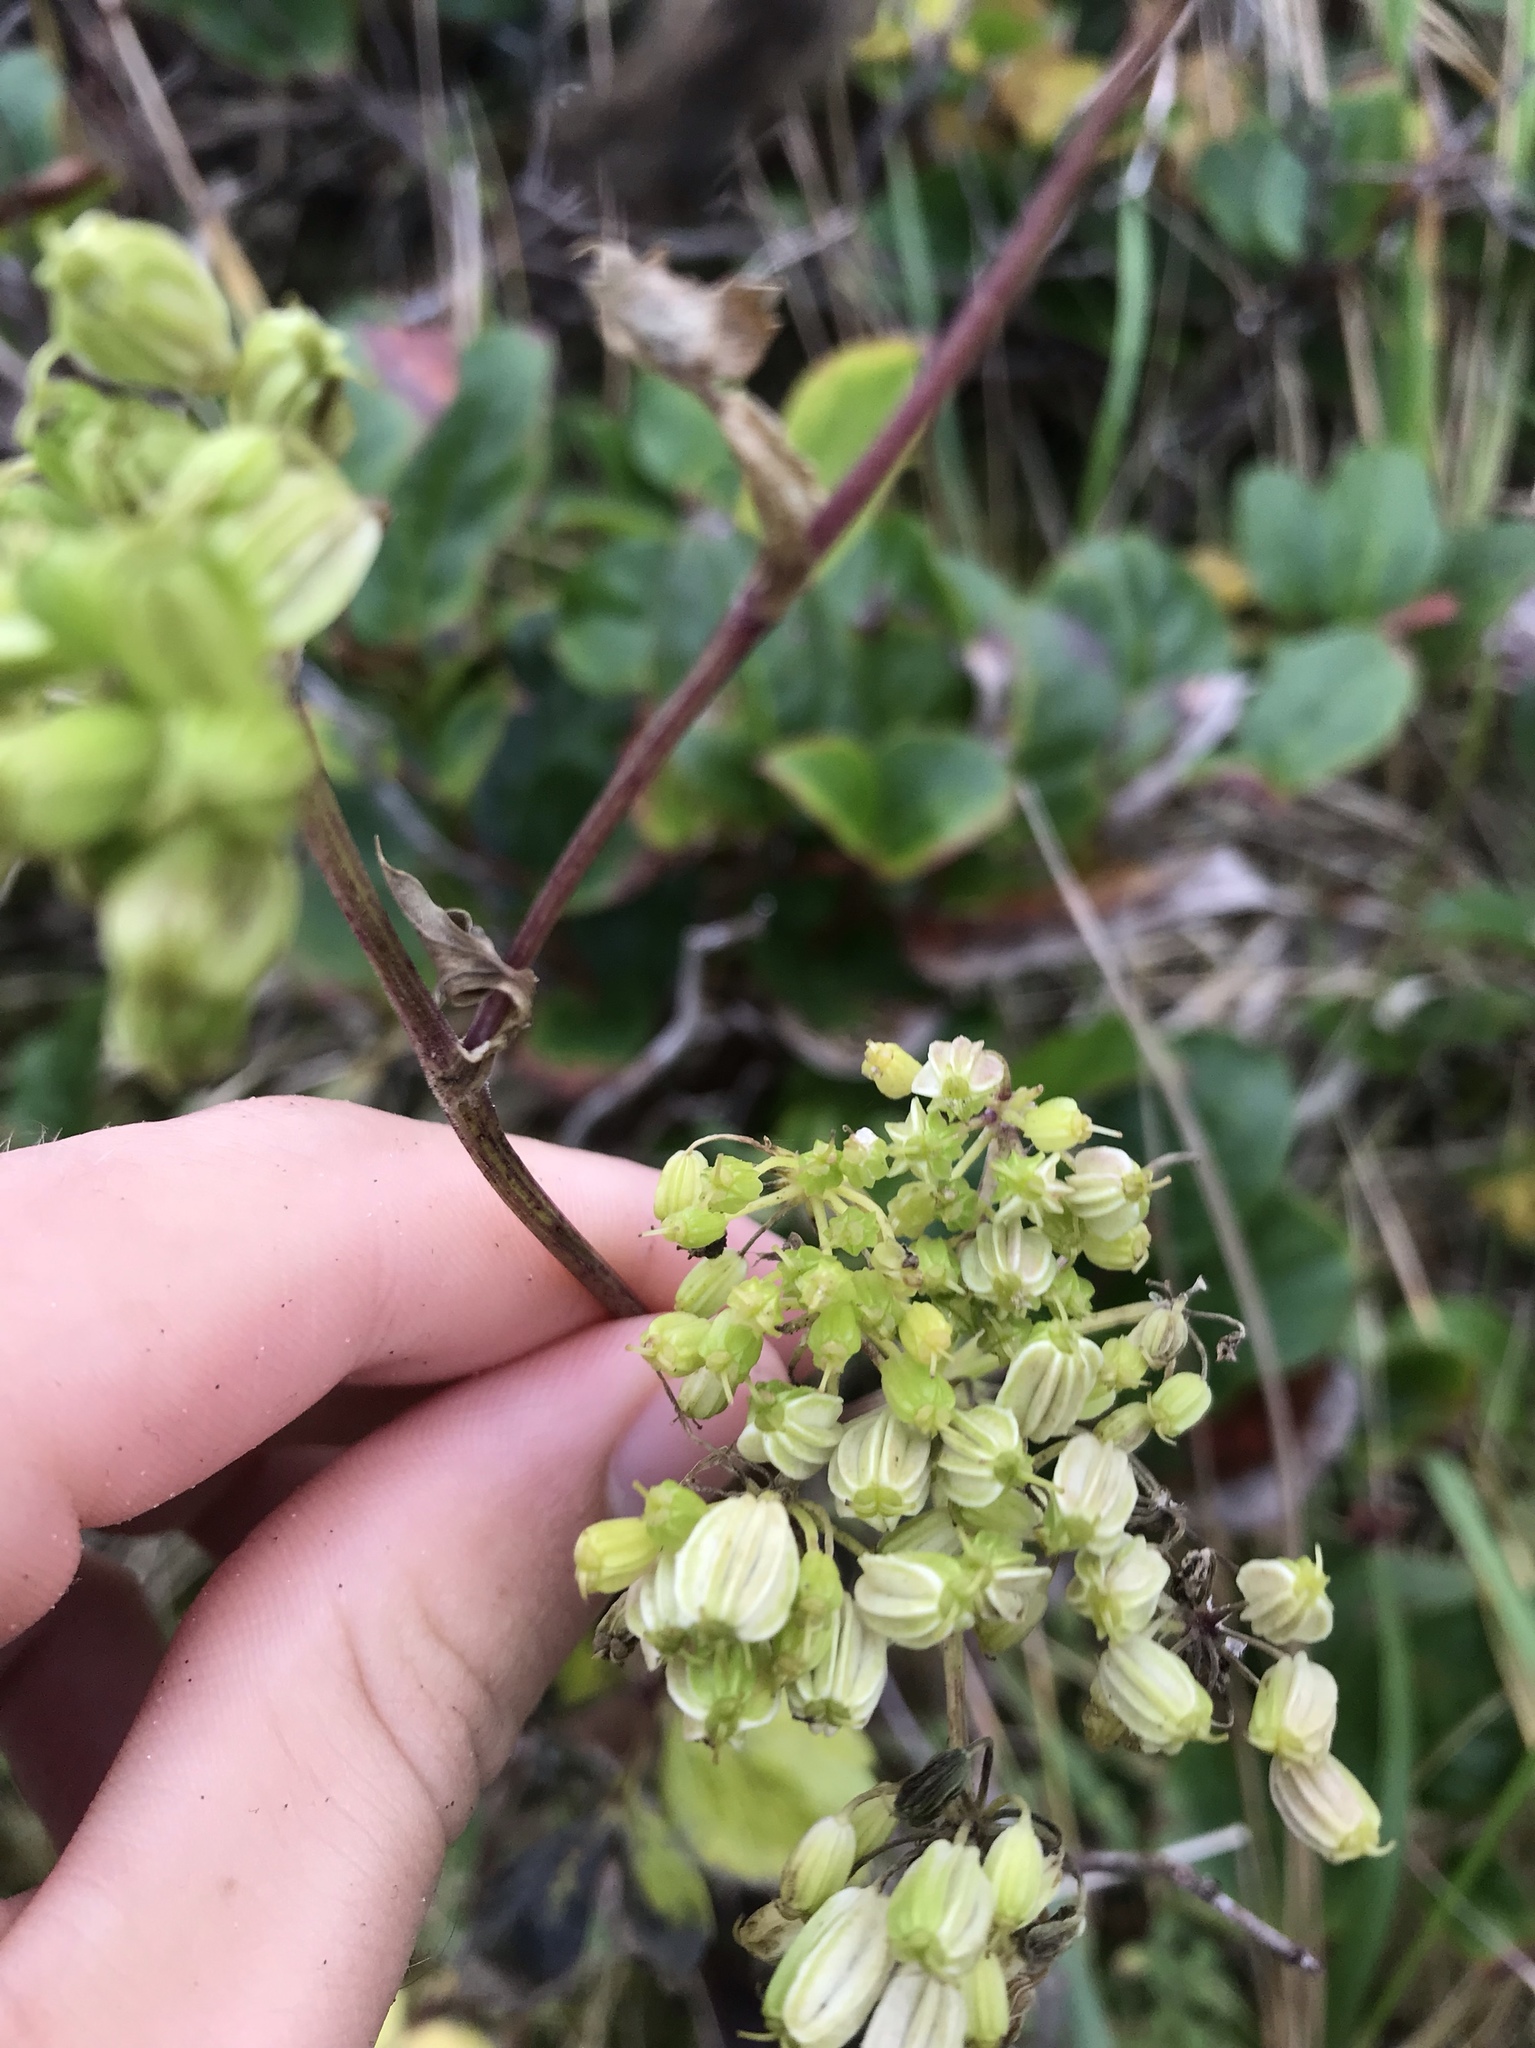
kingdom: Plantae
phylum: Tracheophyta
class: Magnoliopsida
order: Apiales
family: Apiaceae
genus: Angelica
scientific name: Angelica lucida
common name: Seabeach angelica
